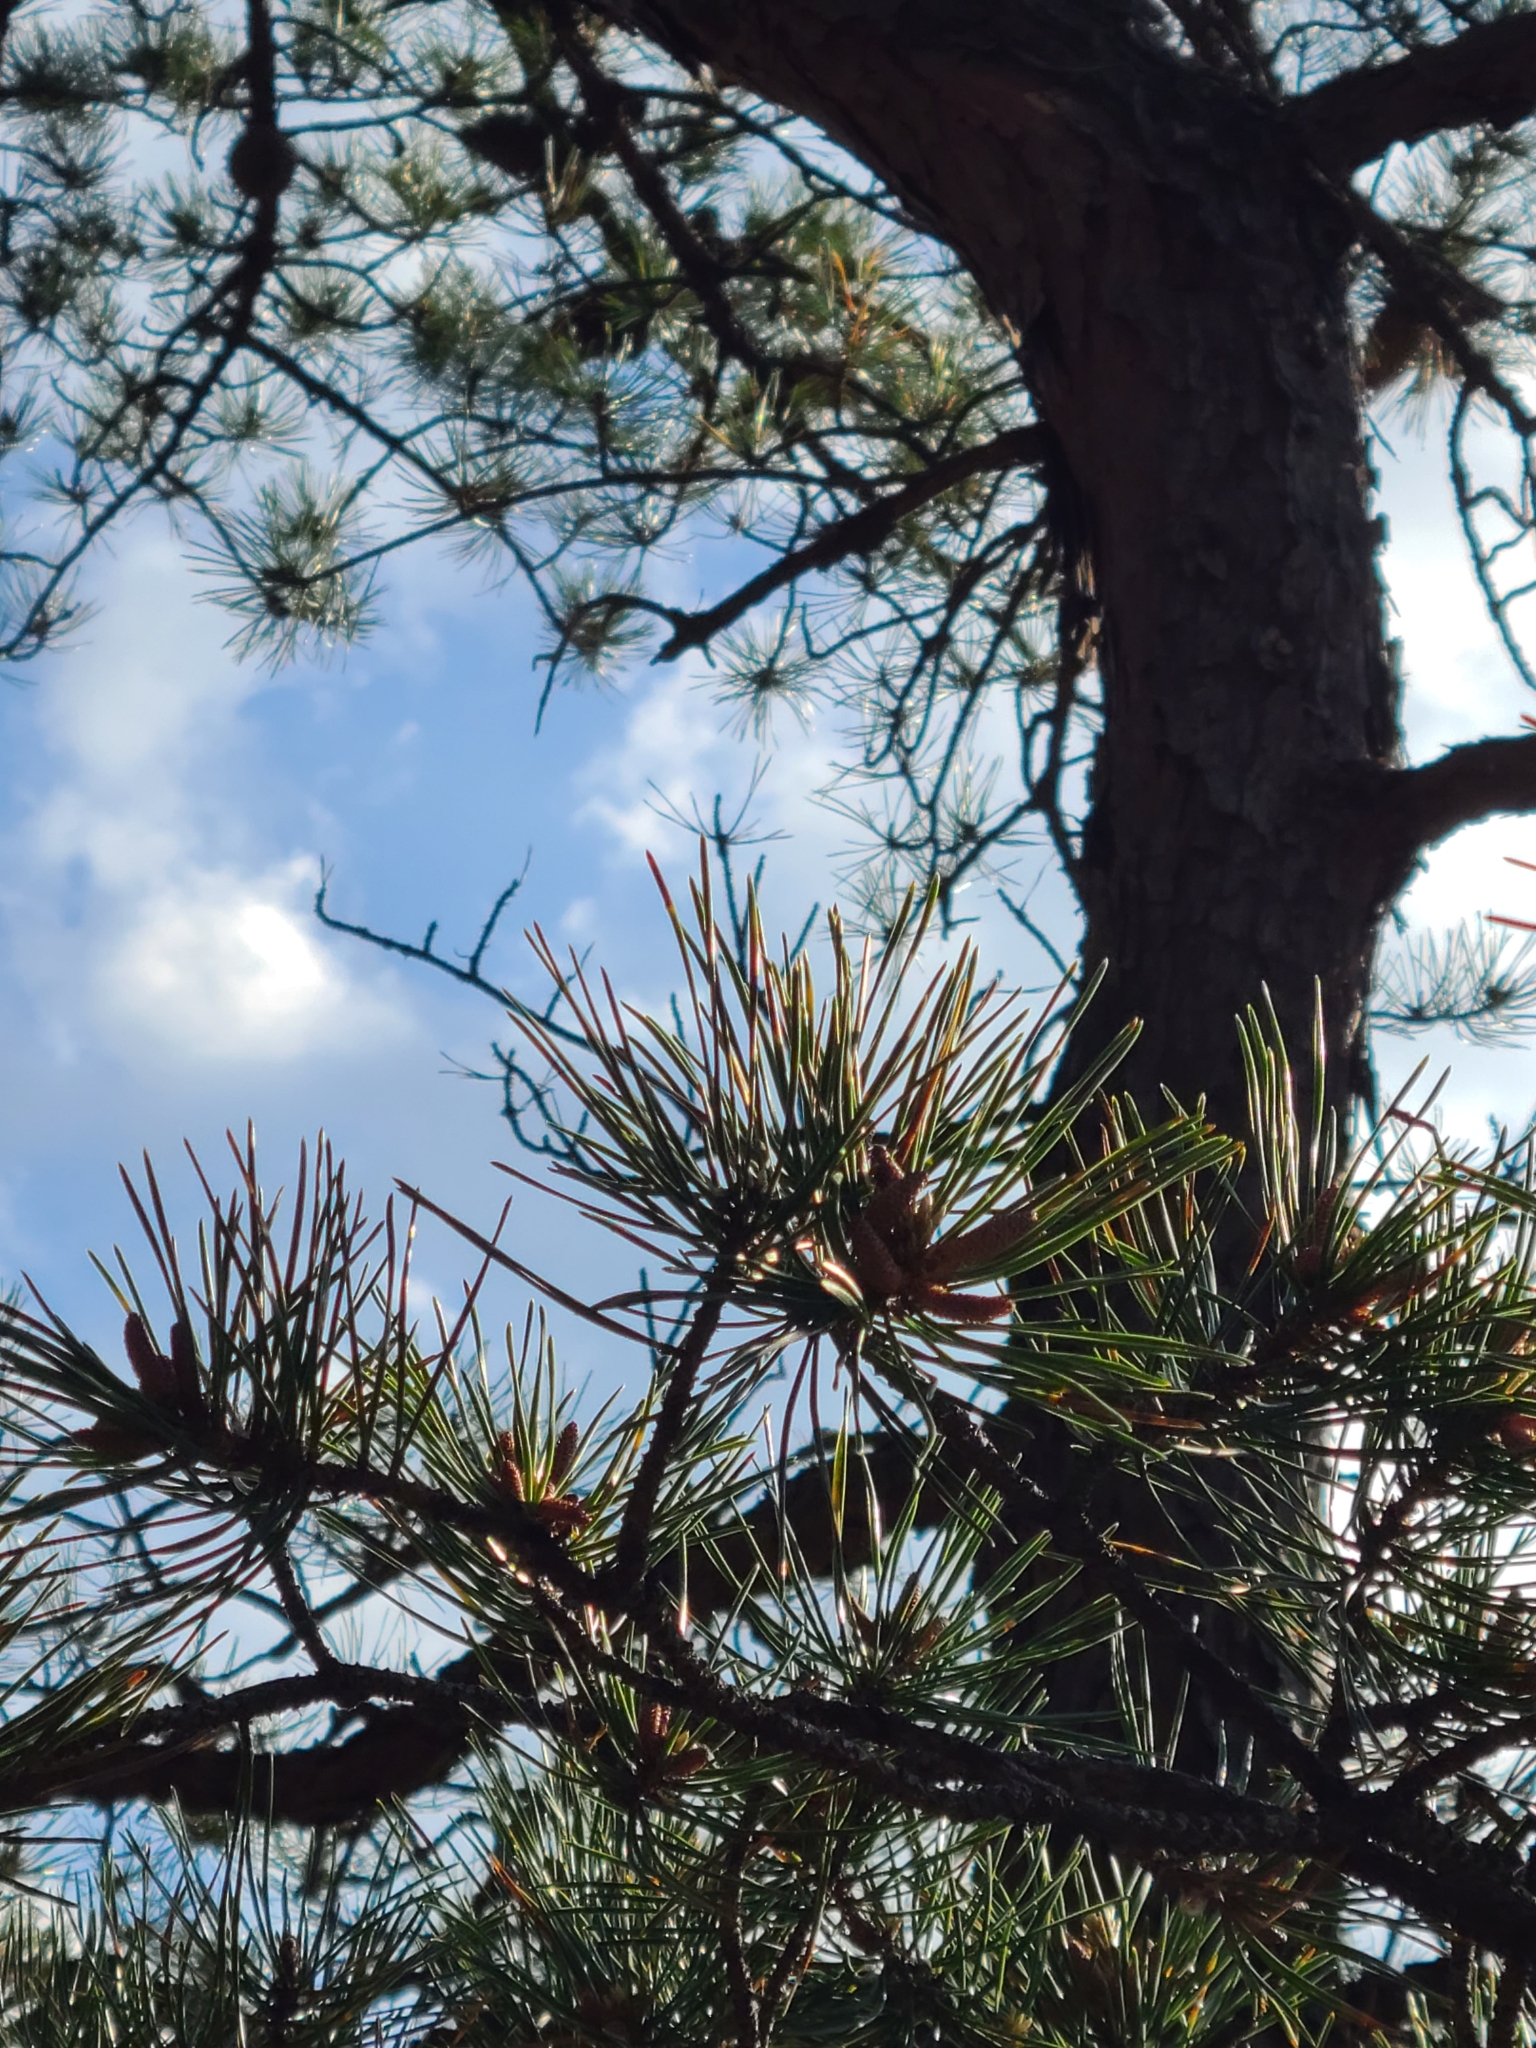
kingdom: Plantae
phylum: Tracheophyta
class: Pinopsida
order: Pinales
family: Pinaceae
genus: Pinus
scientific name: Pinus pungens
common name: Hickory pine
